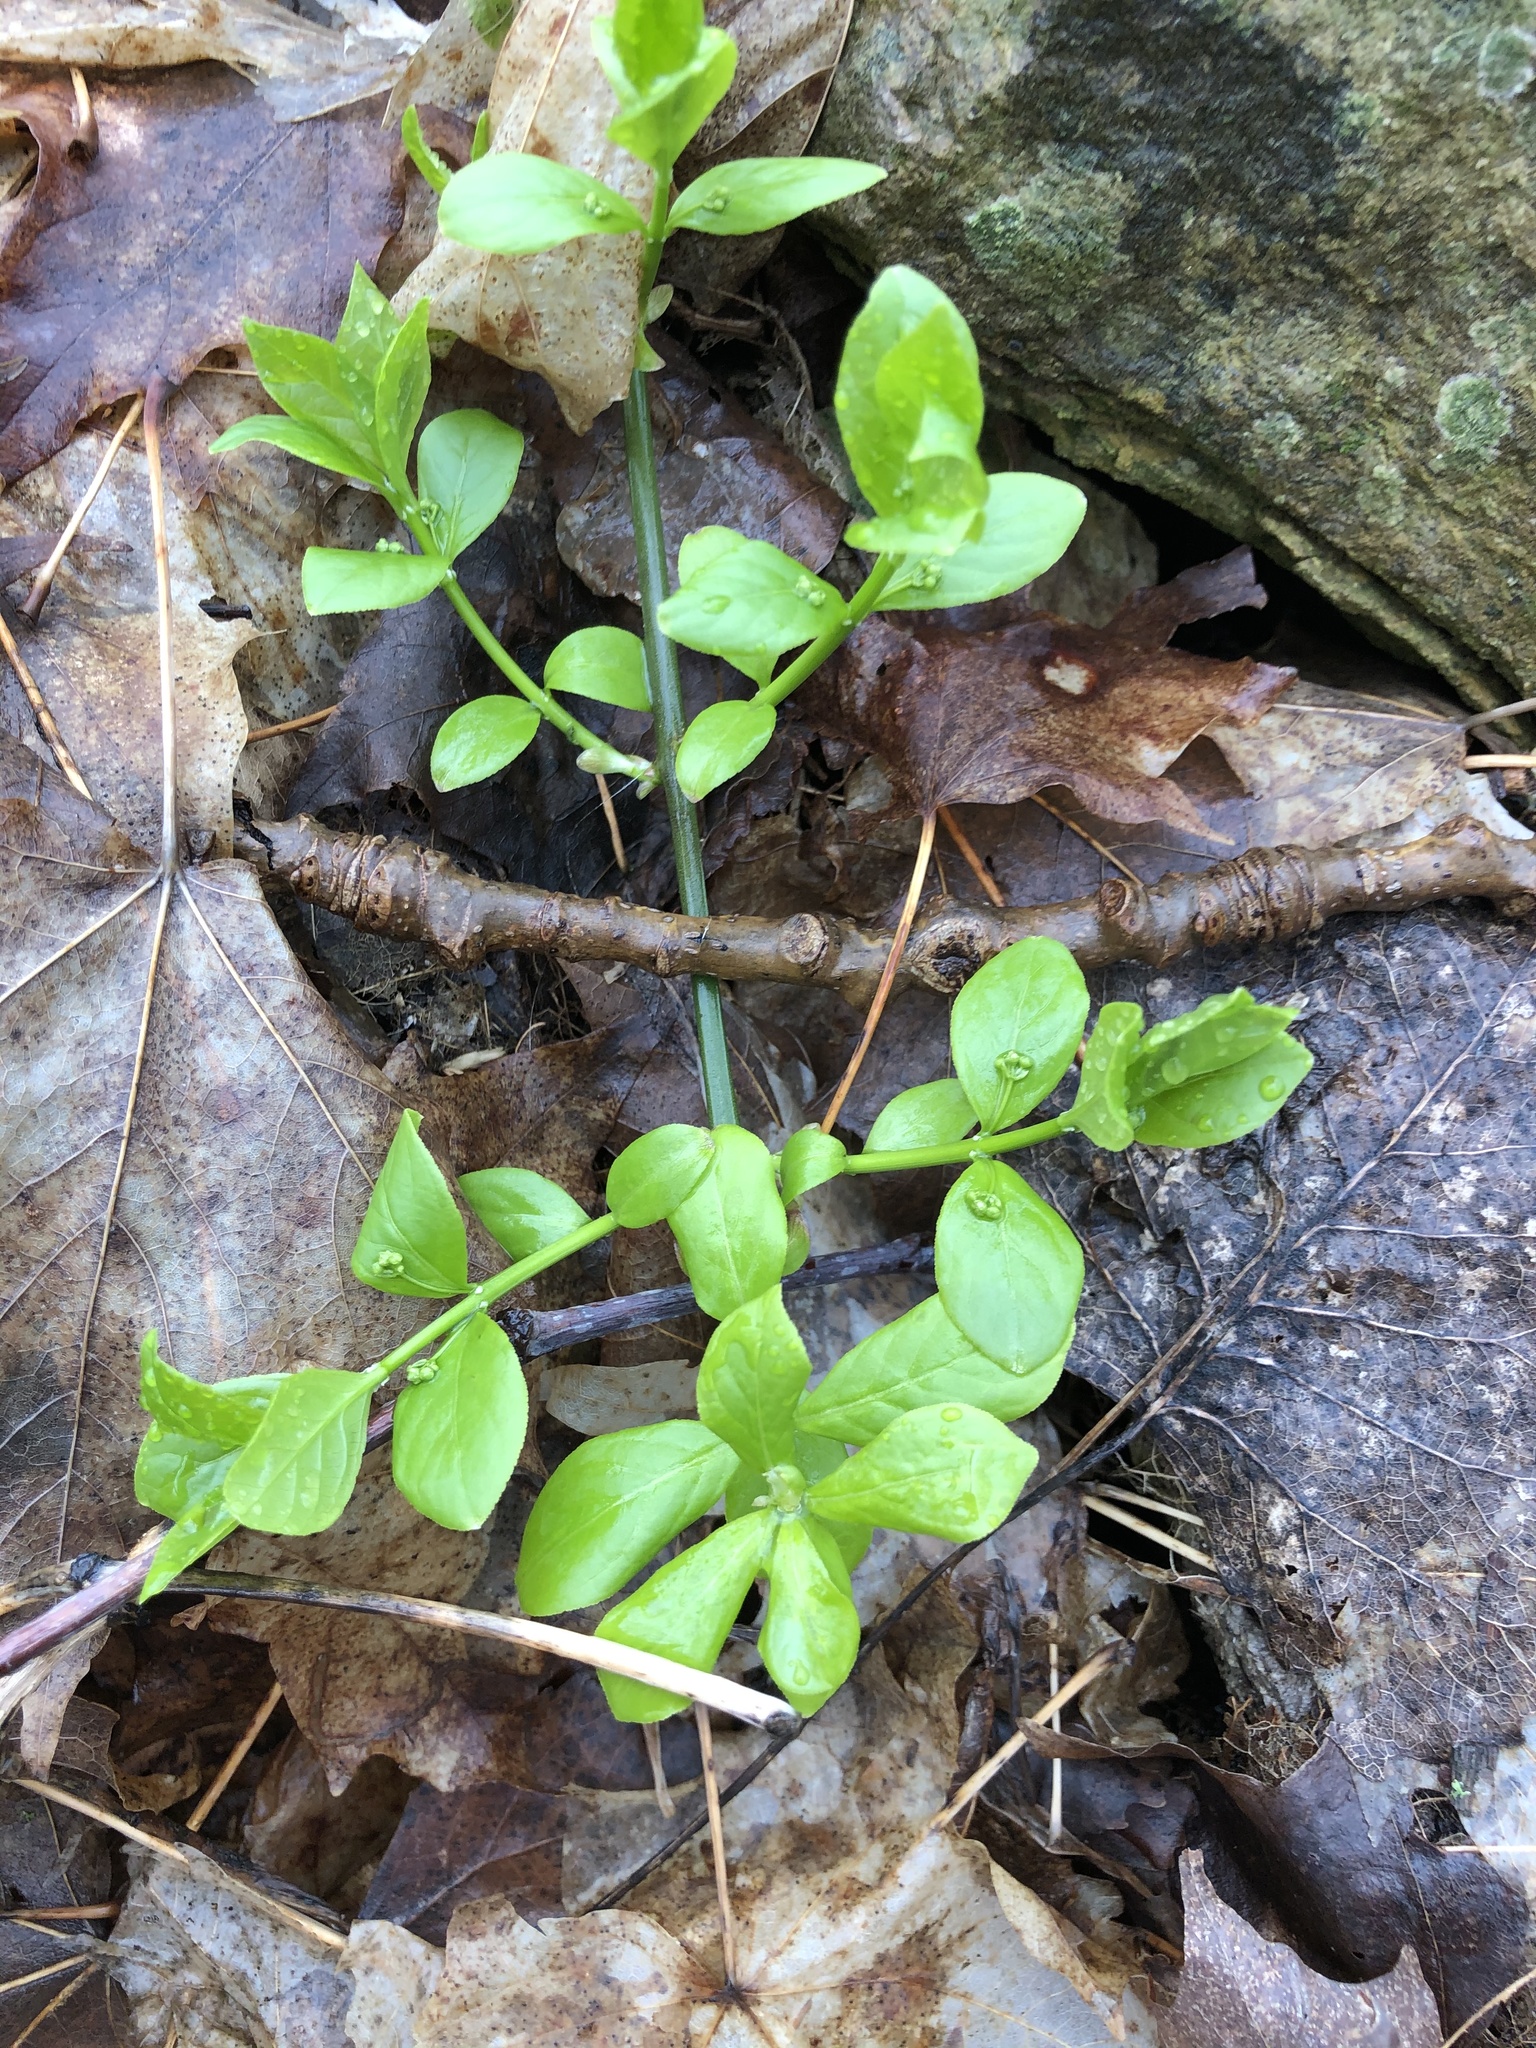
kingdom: Plantae
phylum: Tracheophyta
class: Magnoliopsida
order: Celastrales
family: Celastraceae
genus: Euonymus
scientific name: Euonymus obovatus
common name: Running strawberry-bush
